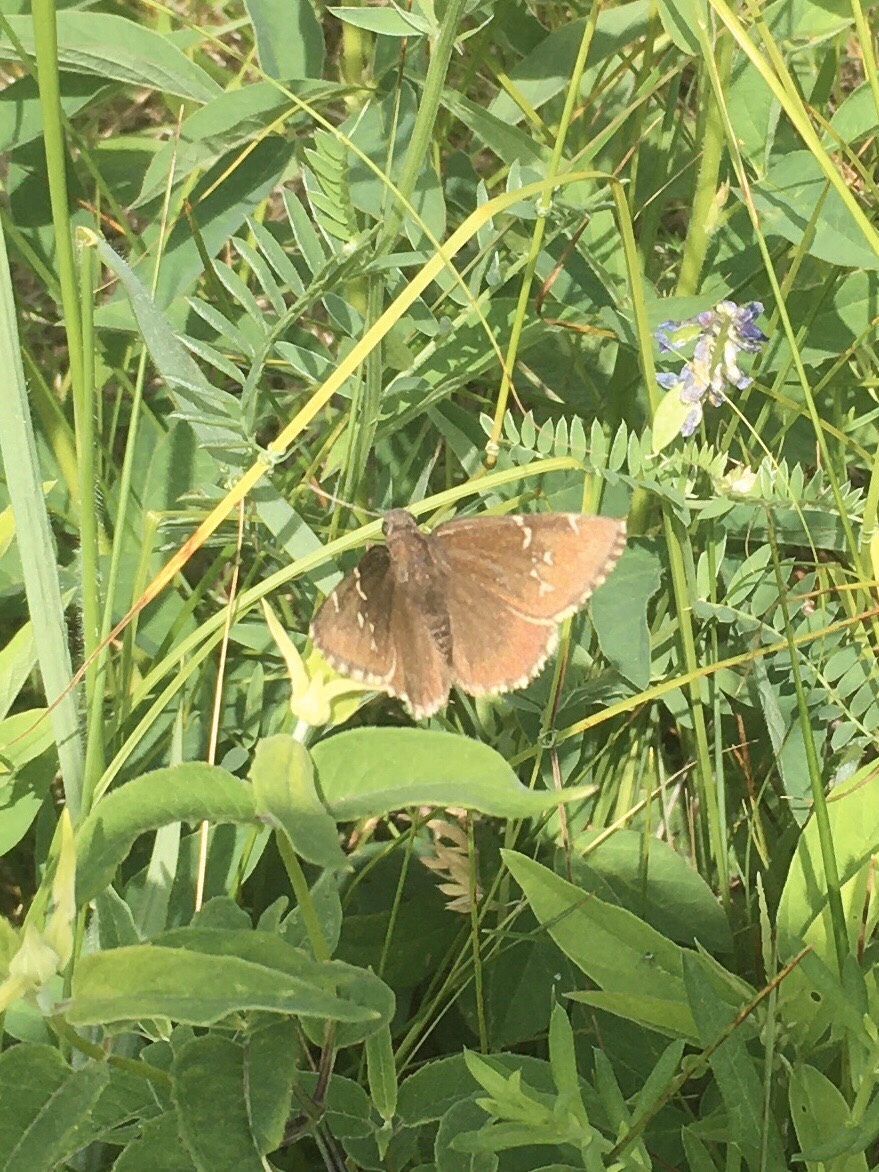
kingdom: Animalia
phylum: Arthropoda
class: Insecta
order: Lepidoptera
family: Hesperiidae
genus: Thorybes
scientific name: Thorybes pylades
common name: Northern cloudywing
